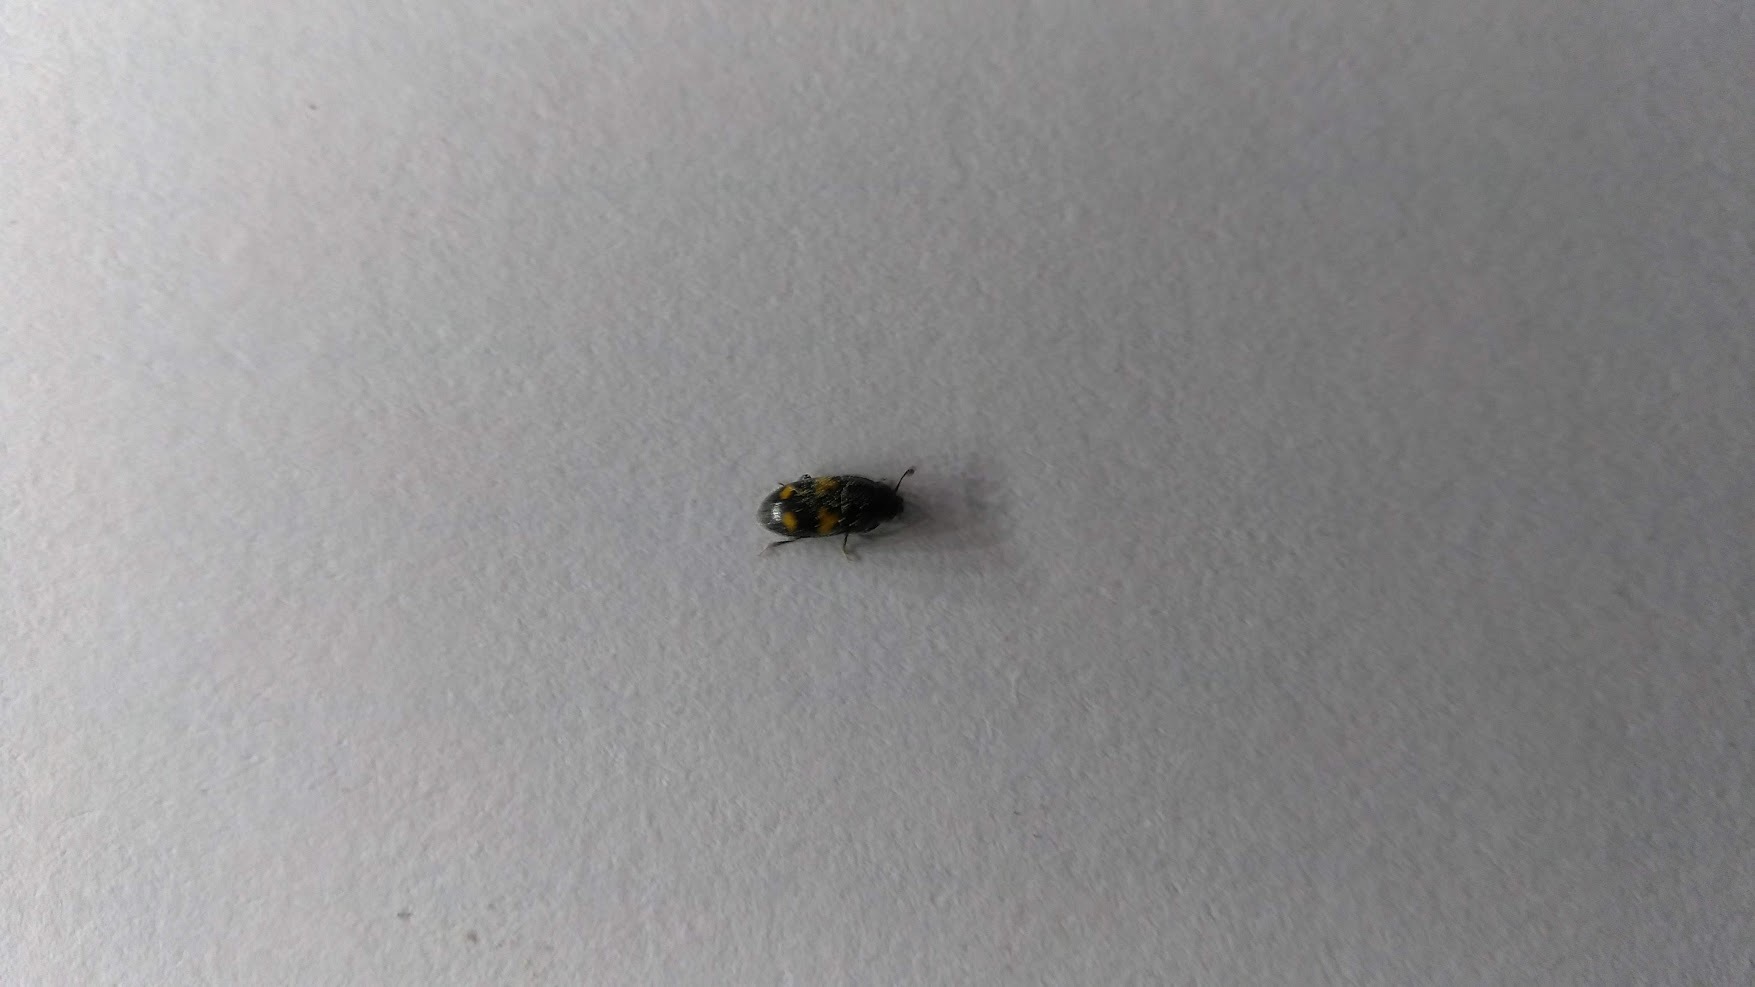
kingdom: Animalia
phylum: Arthropoda
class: Insecta
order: Coleoptera
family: Nitidulidae
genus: Glischrochilus
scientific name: Glischrochilus quadrisignatus
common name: Picnic beetle
